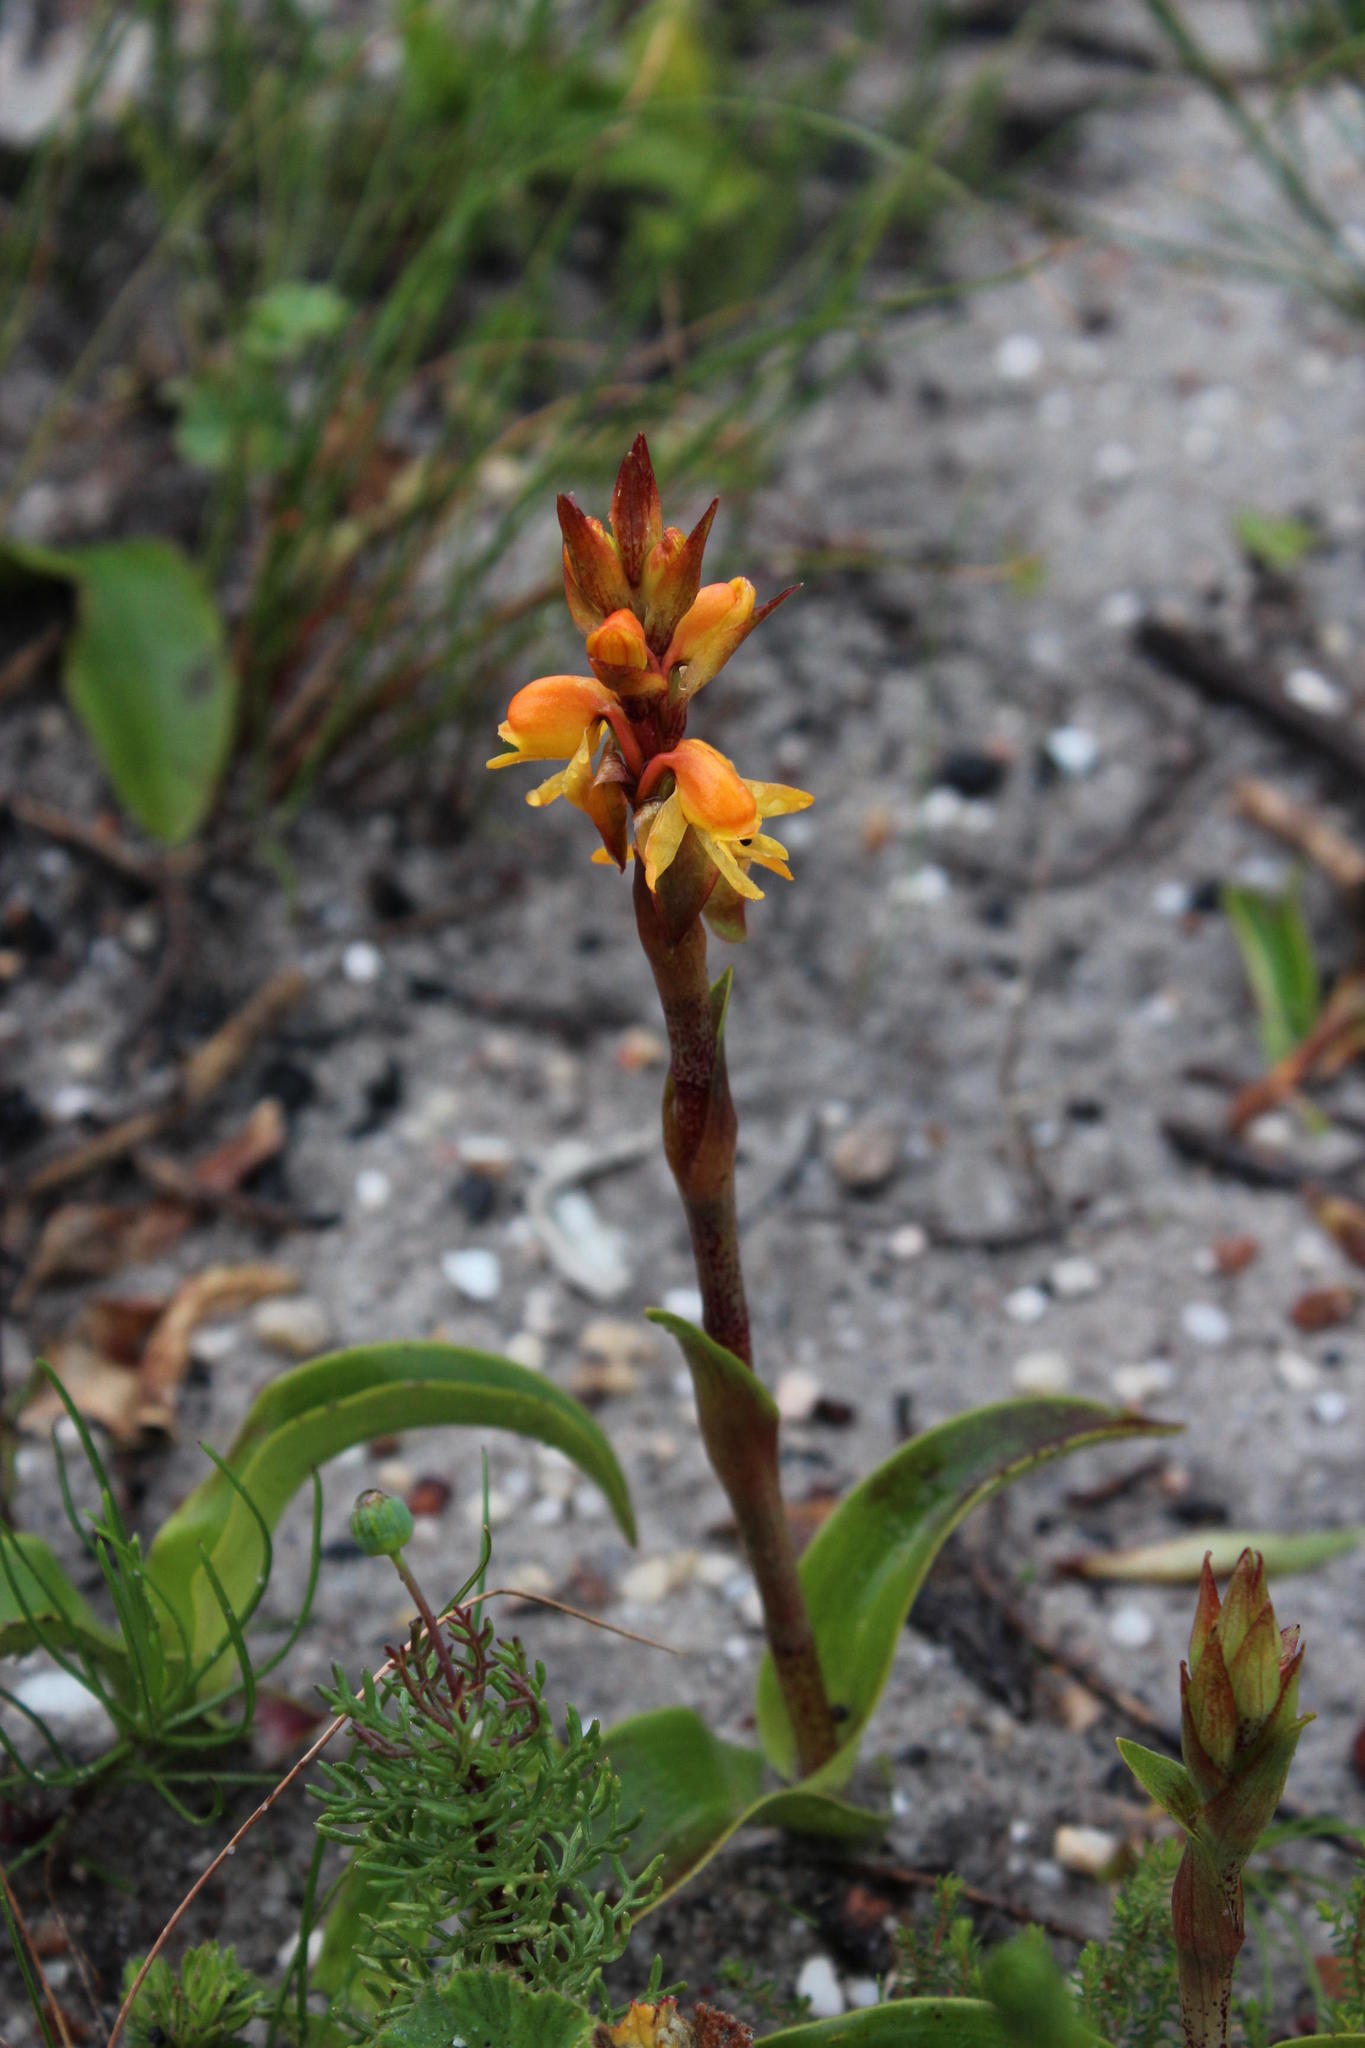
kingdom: Plantae
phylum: Tracheophyta
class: Liliopsida
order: Asparagales
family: Orchidaceae
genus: Satyrium
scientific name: Satyrium coriifolium
